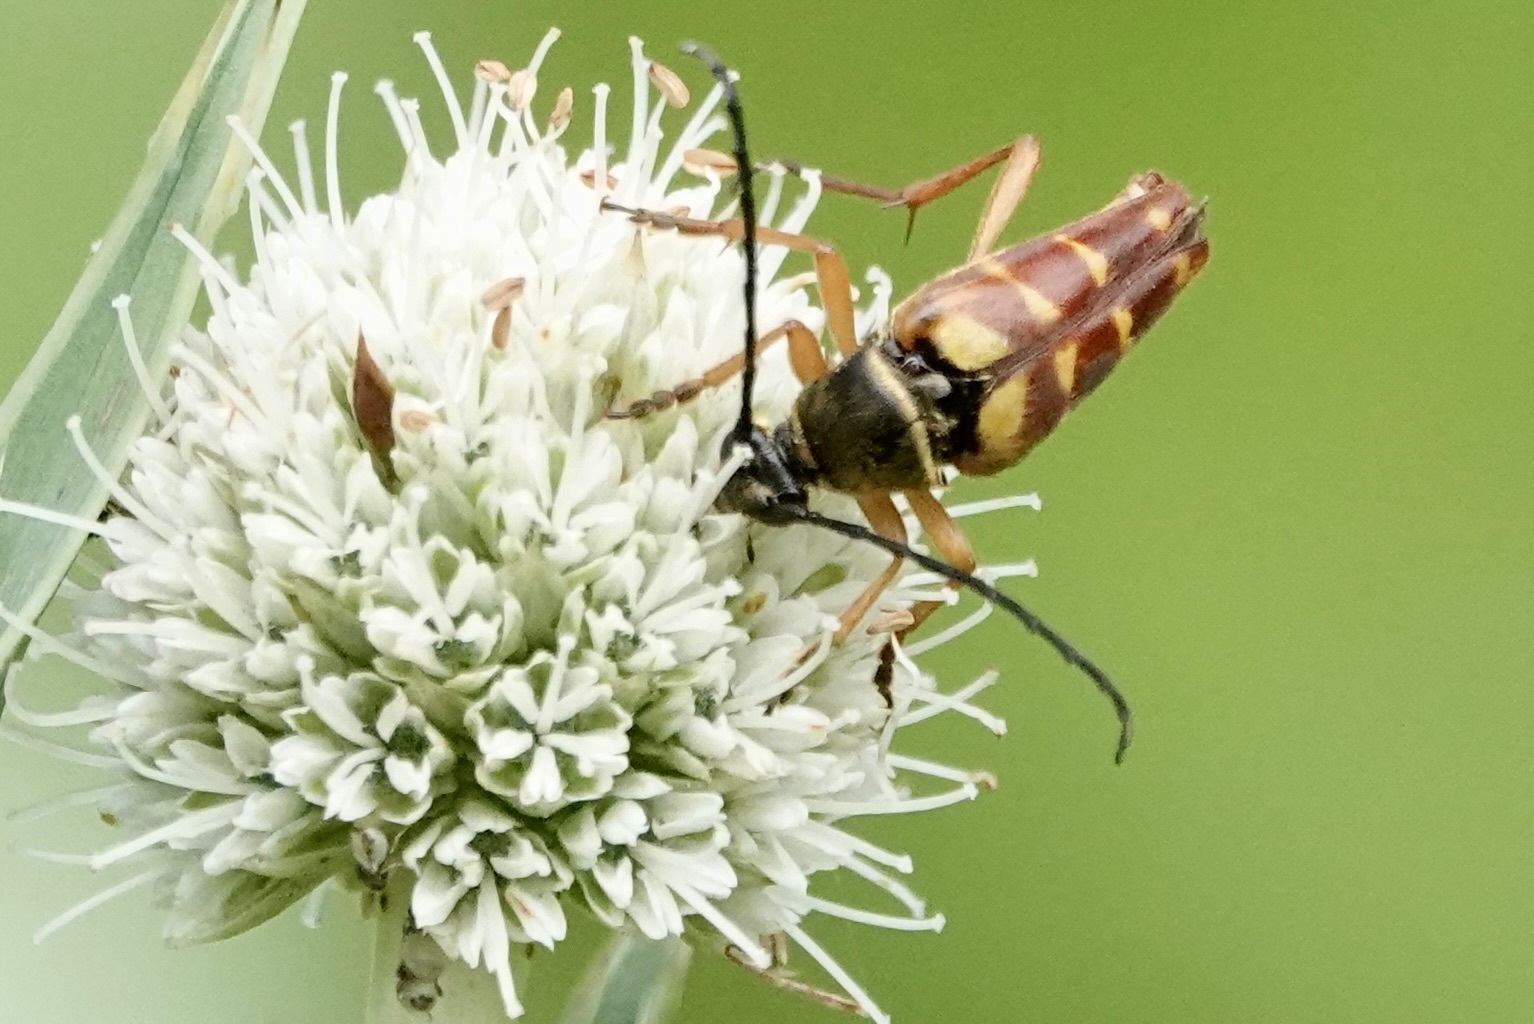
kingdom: Animalia
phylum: Arthropoda
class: Insecta
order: Coleoptera
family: Cerambycidae
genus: Typocerus
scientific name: Typocerus velutinus
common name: Banded longhorn beetle
